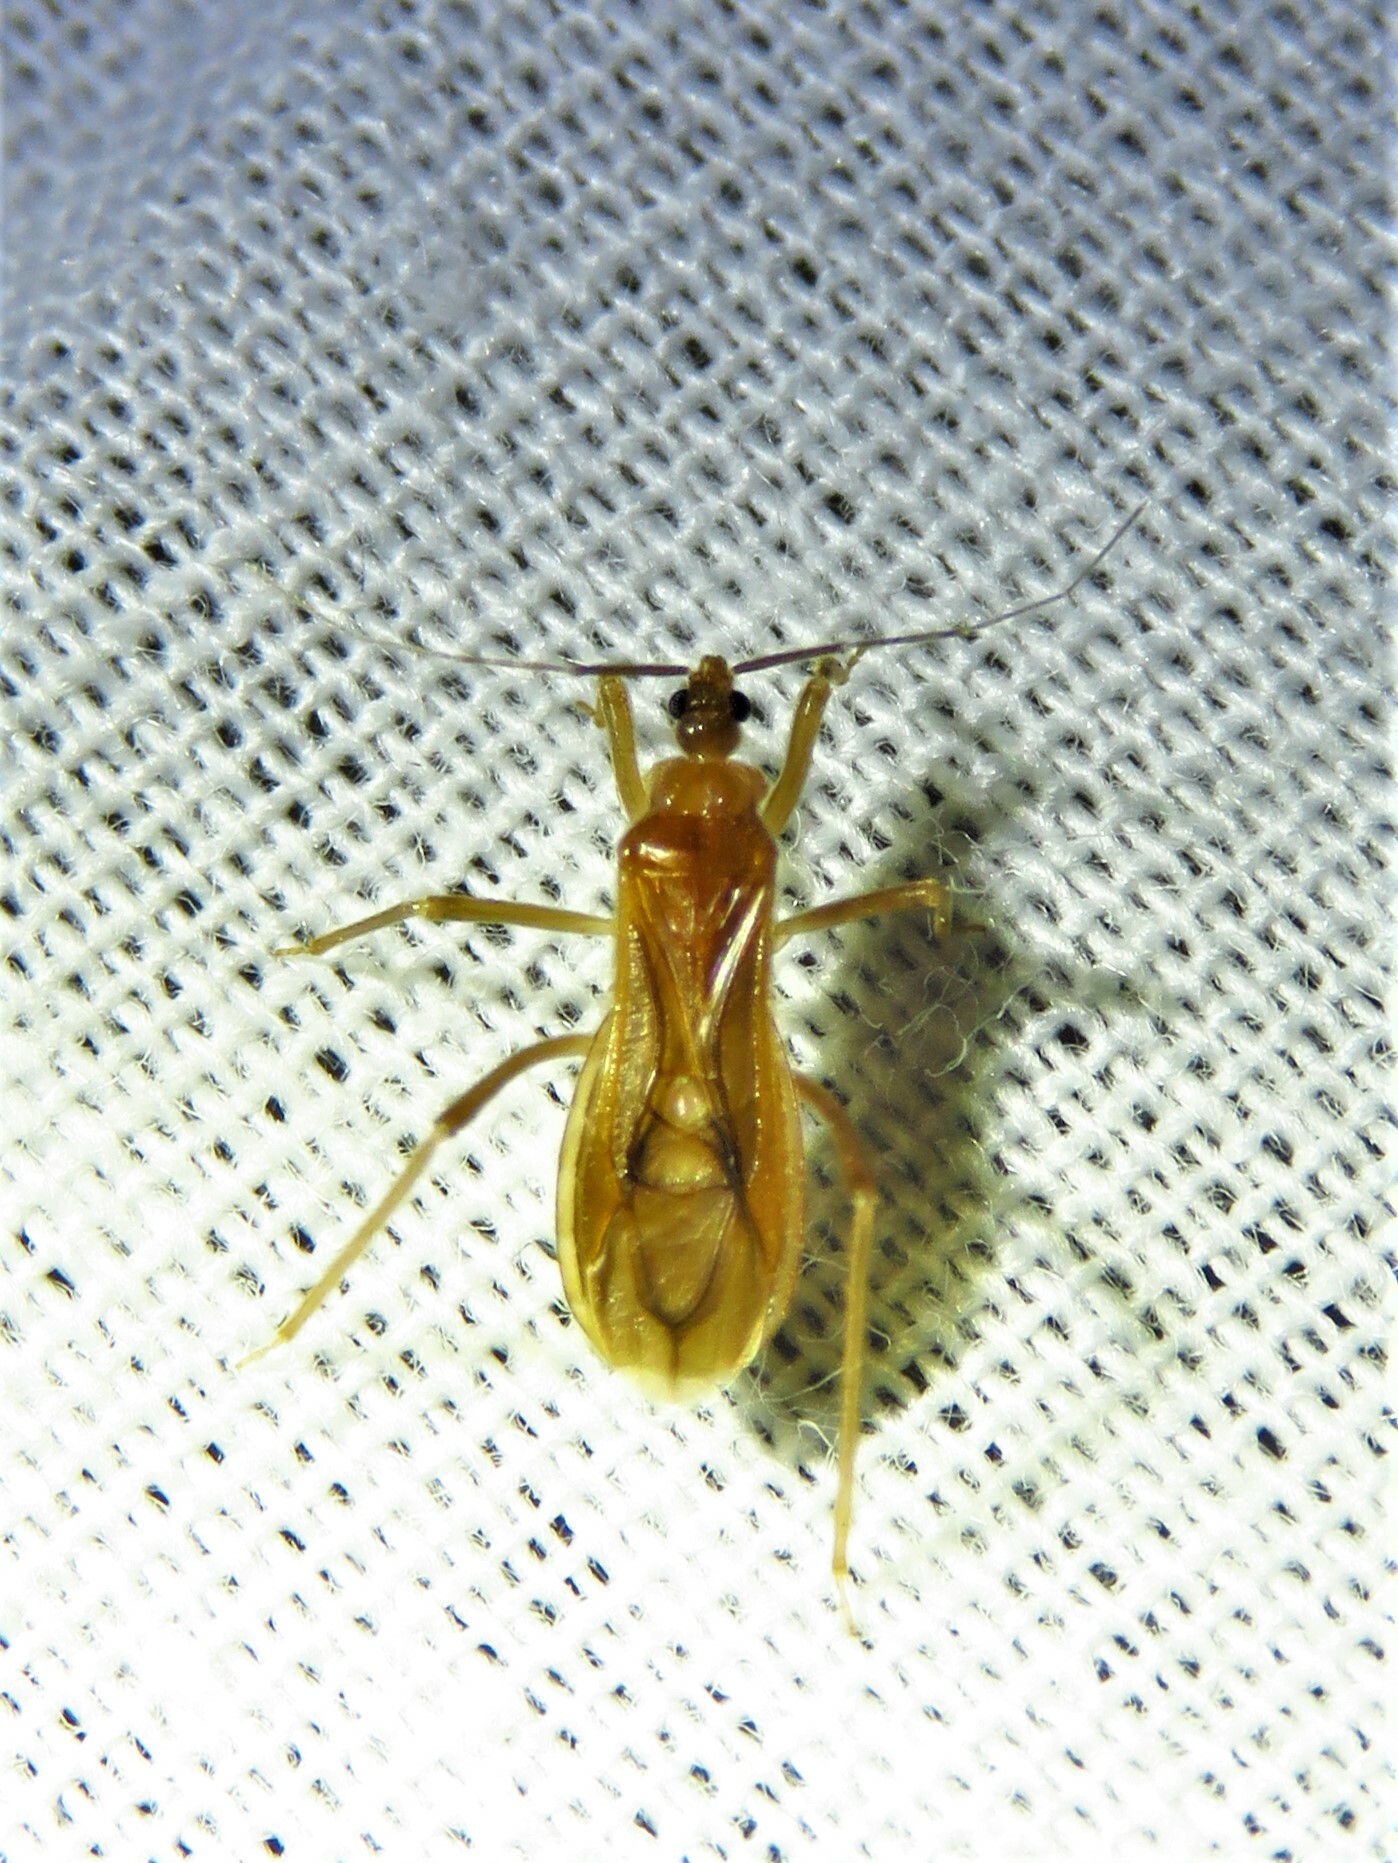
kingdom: Animalia
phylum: Arthropoda
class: Insecta
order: Hemiptera
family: Reduviidae
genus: Oncerotrachelus
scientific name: Oncerotrachelus pallidus
